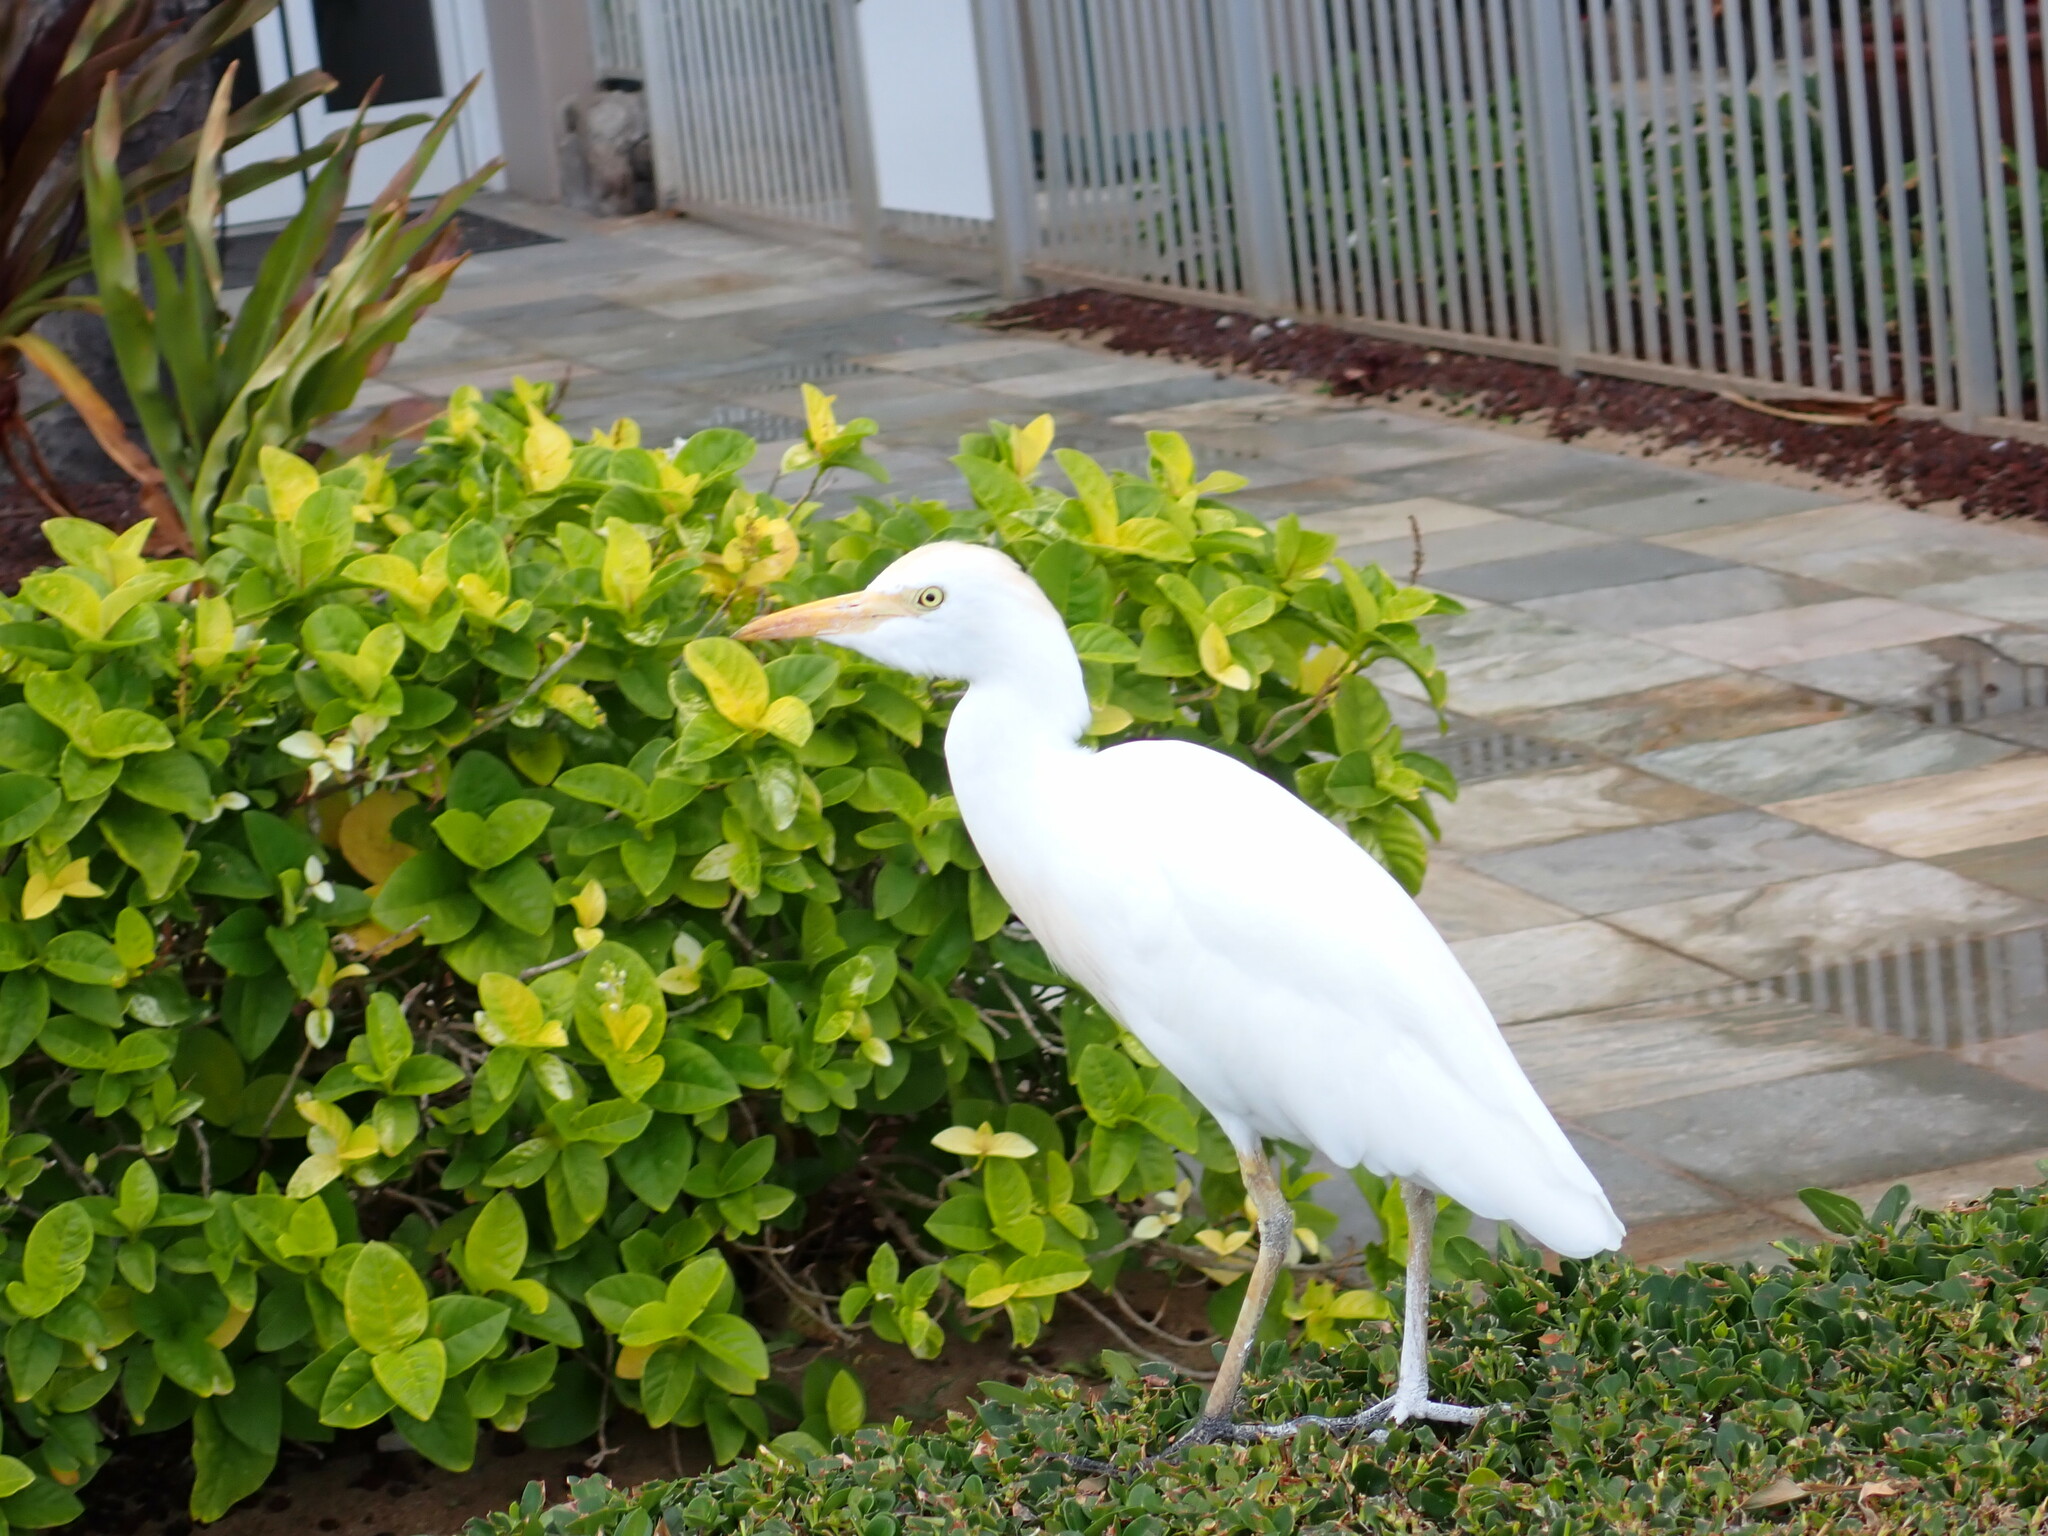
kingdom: Animalia
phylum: Chordata
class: Aves
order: Pelecaniformes
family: Ardeidae
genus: Bubulcus
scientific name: Bubulcus ibis
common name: Cattle egret
